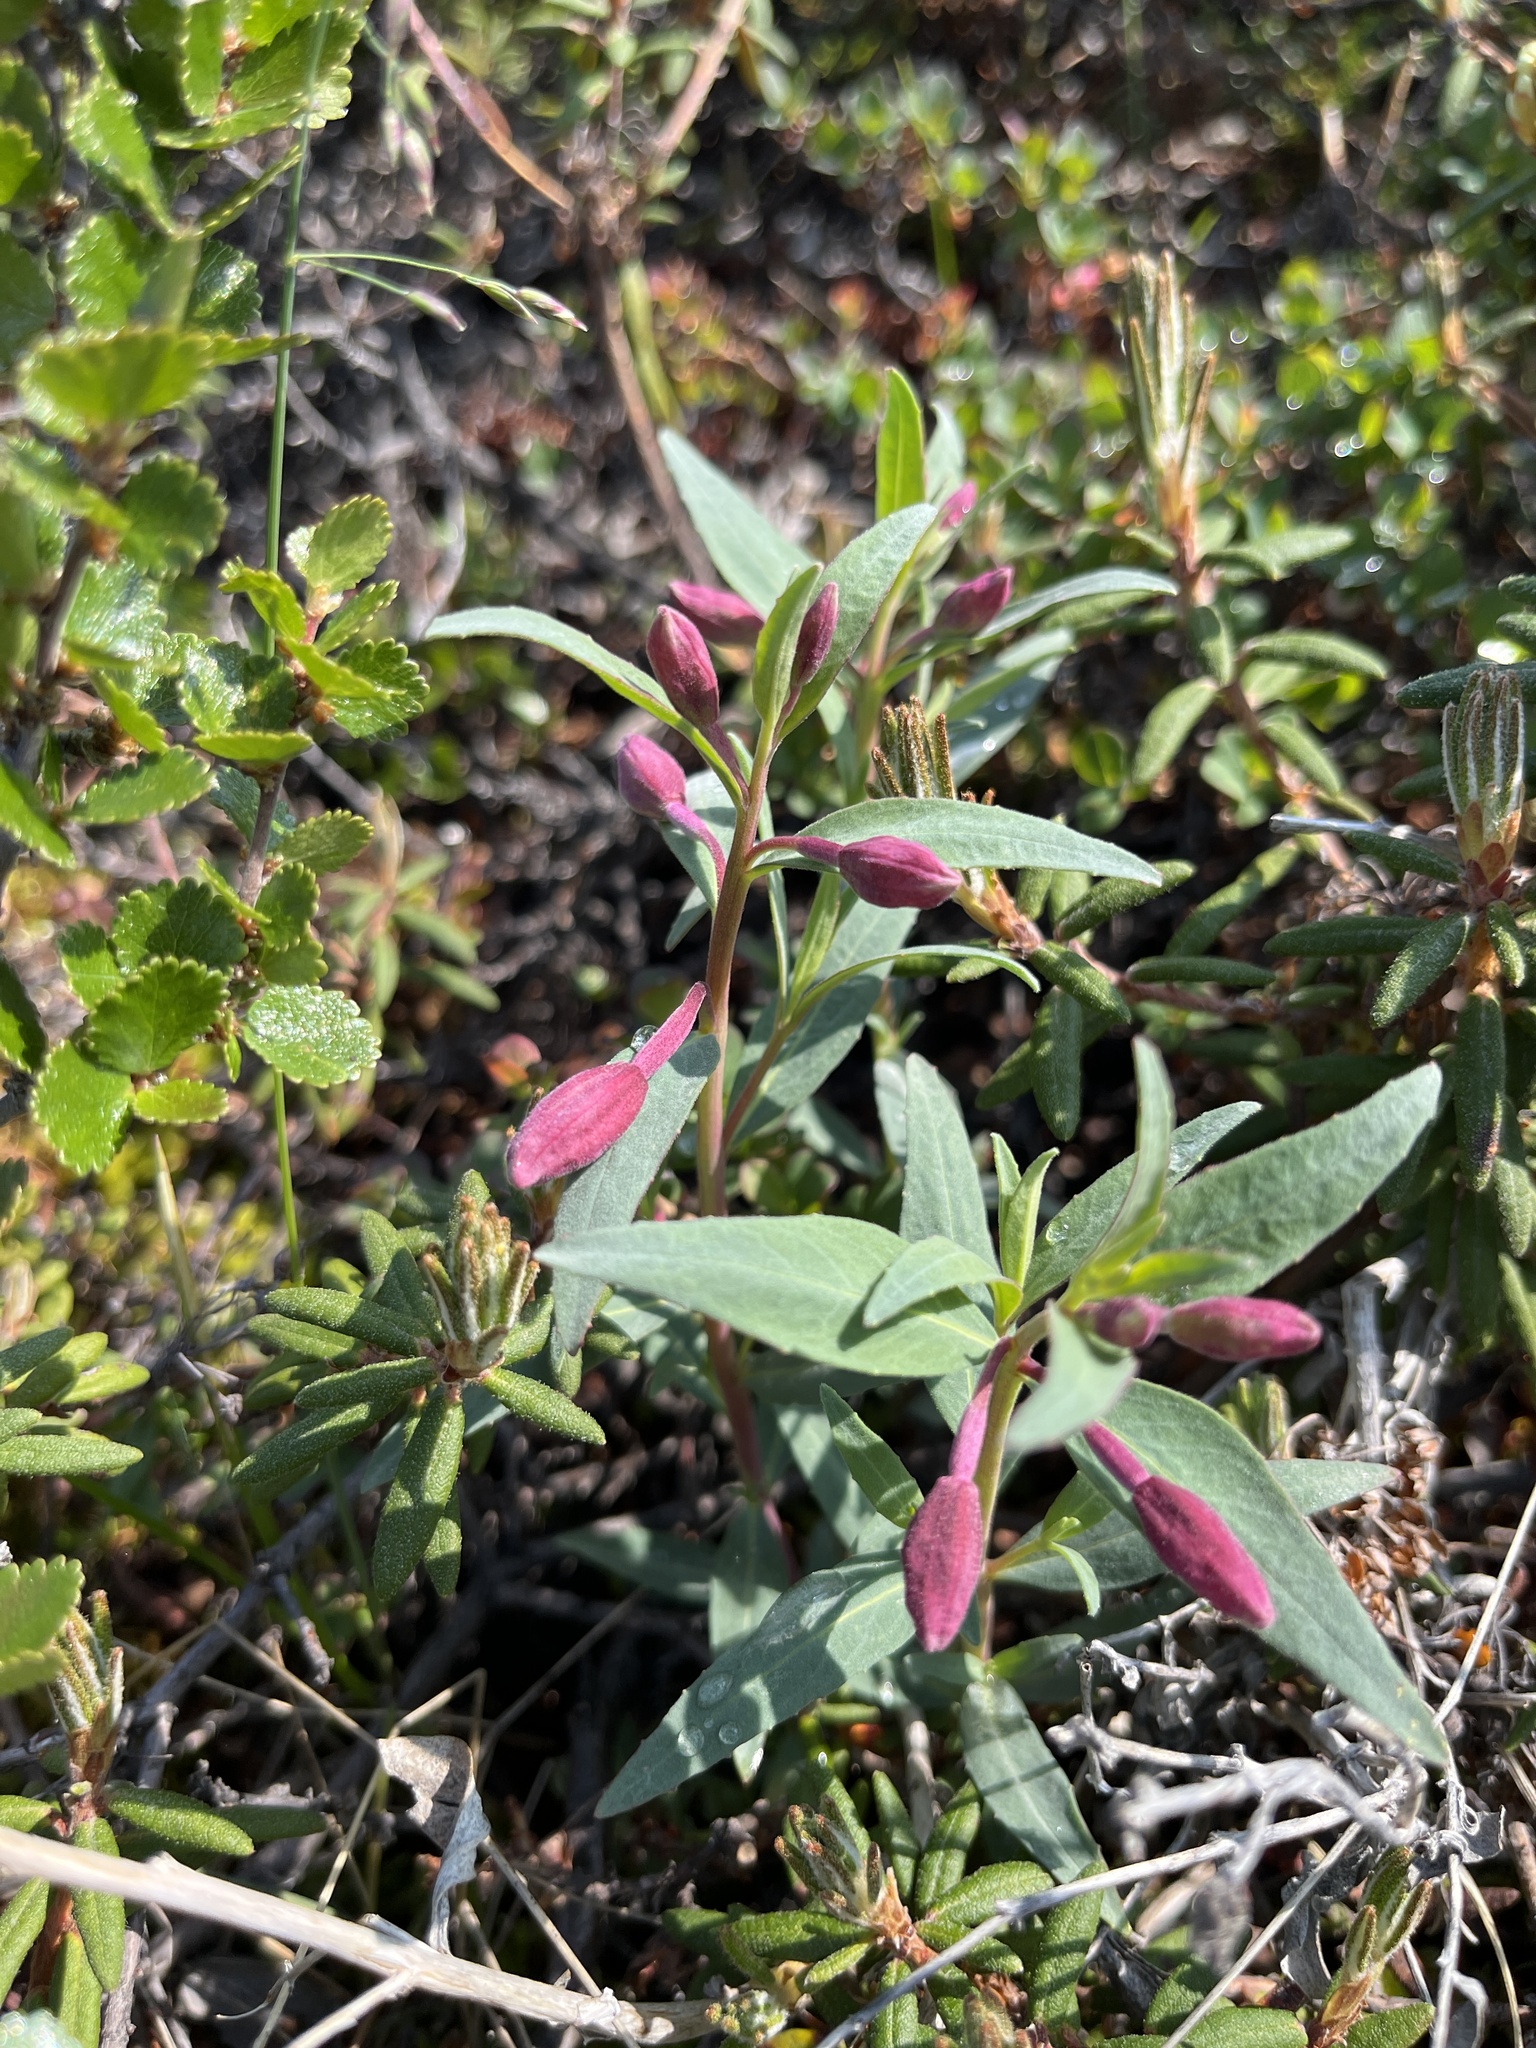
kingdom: Plantae
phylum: Tracheophyta
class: Magnoliopsida
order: Myrtales
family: Onagraceae
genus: Chamaenerion
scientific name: Chamaenerion angustifolium
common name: Fireweed
